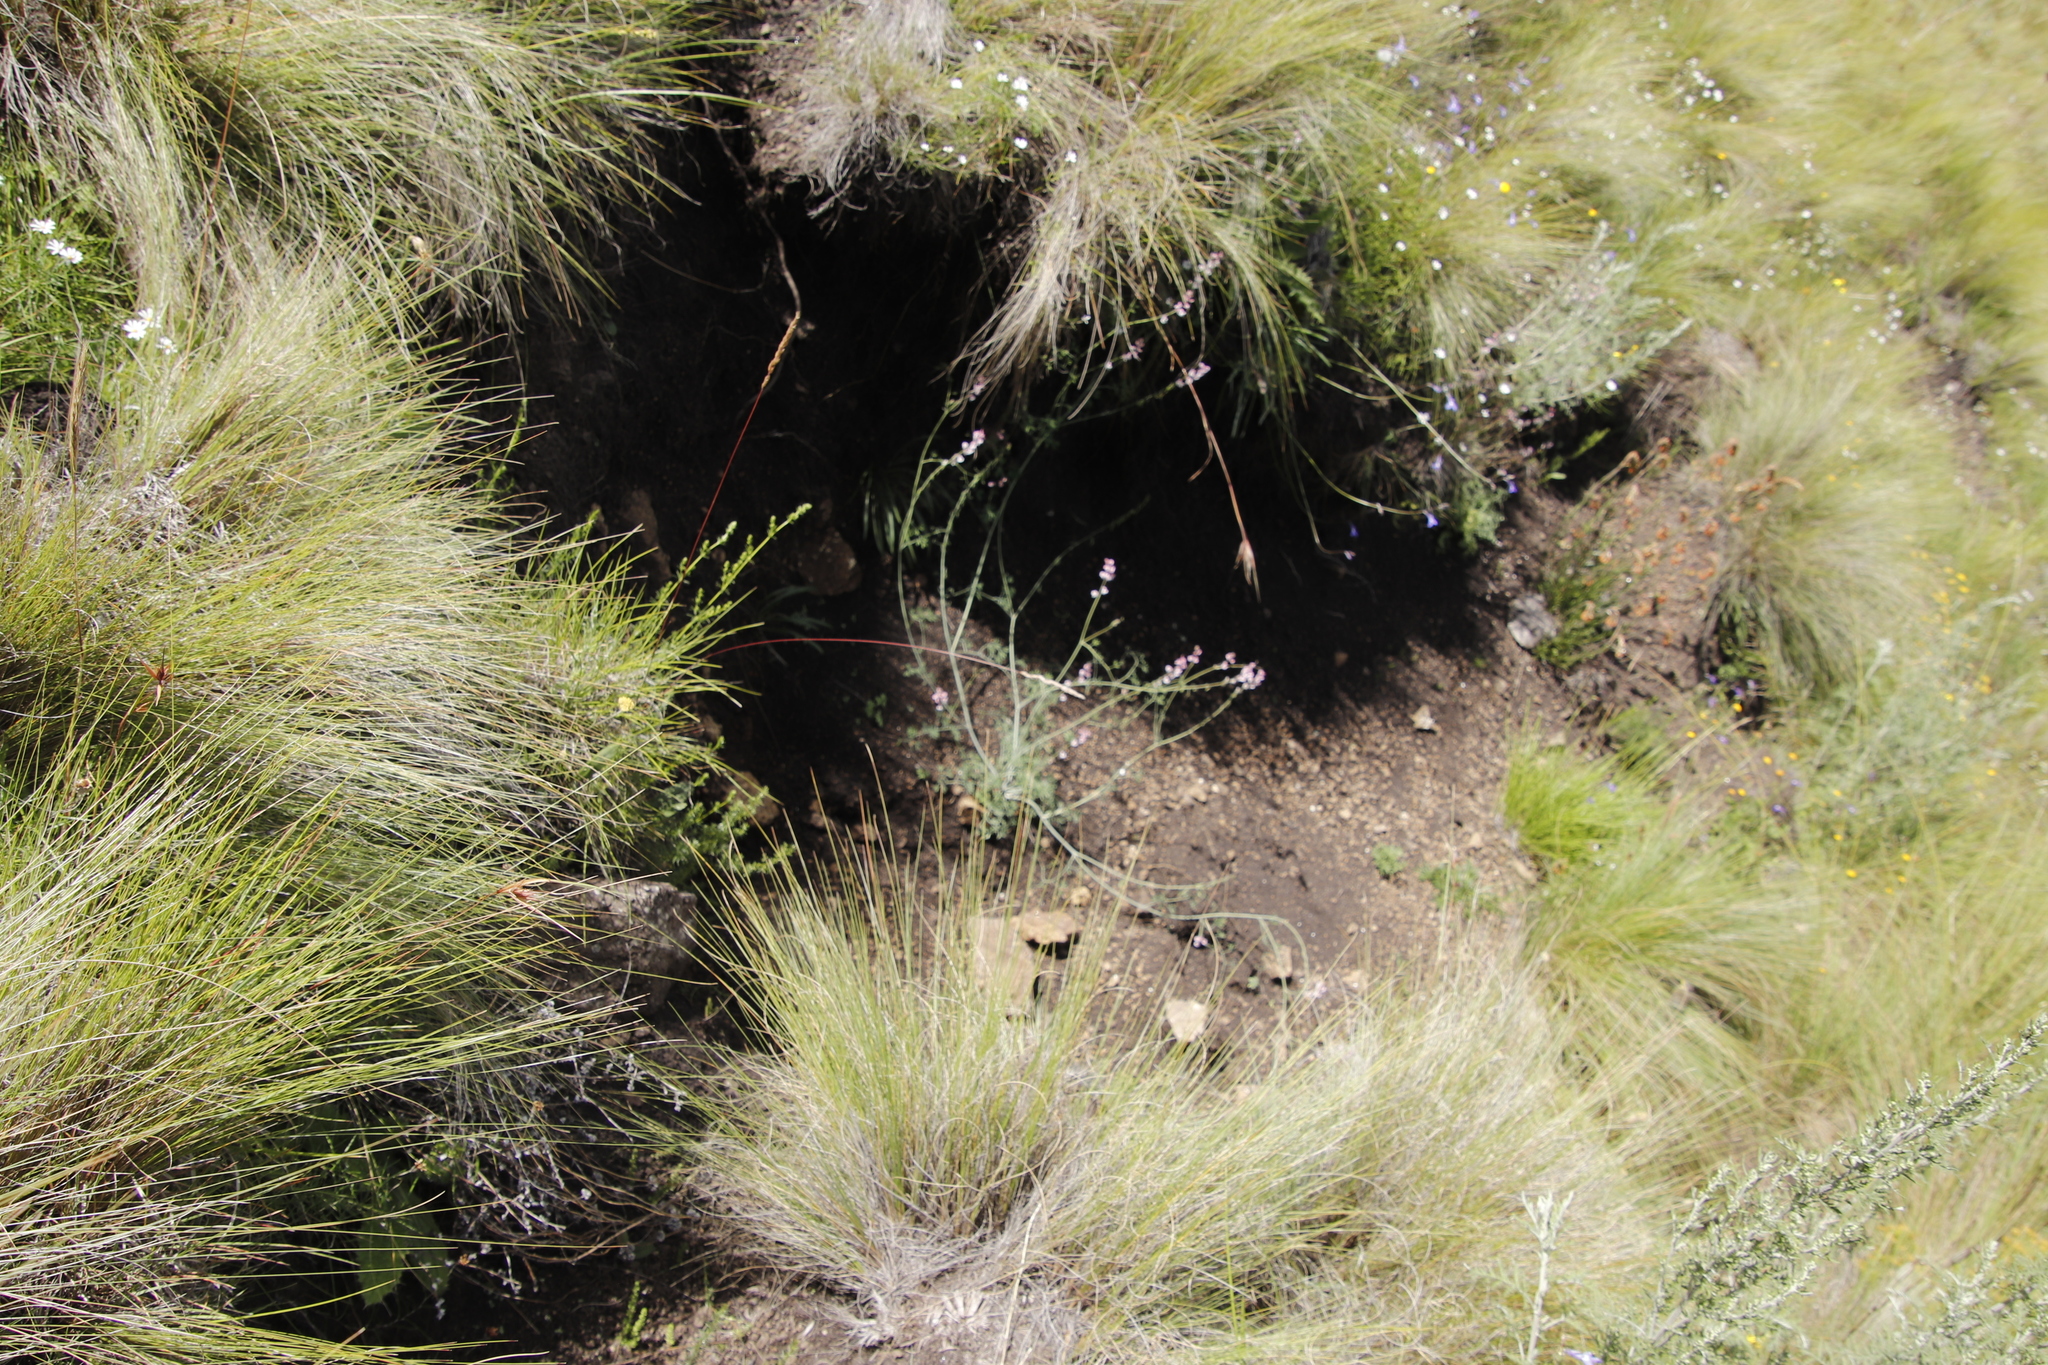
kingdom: Plantae
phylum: Tracheophyta
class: Magnoliopsida
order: Ranunculales
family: Papaveraceae
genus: Cysticapnos
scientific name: Cysticapnos pruinosa
